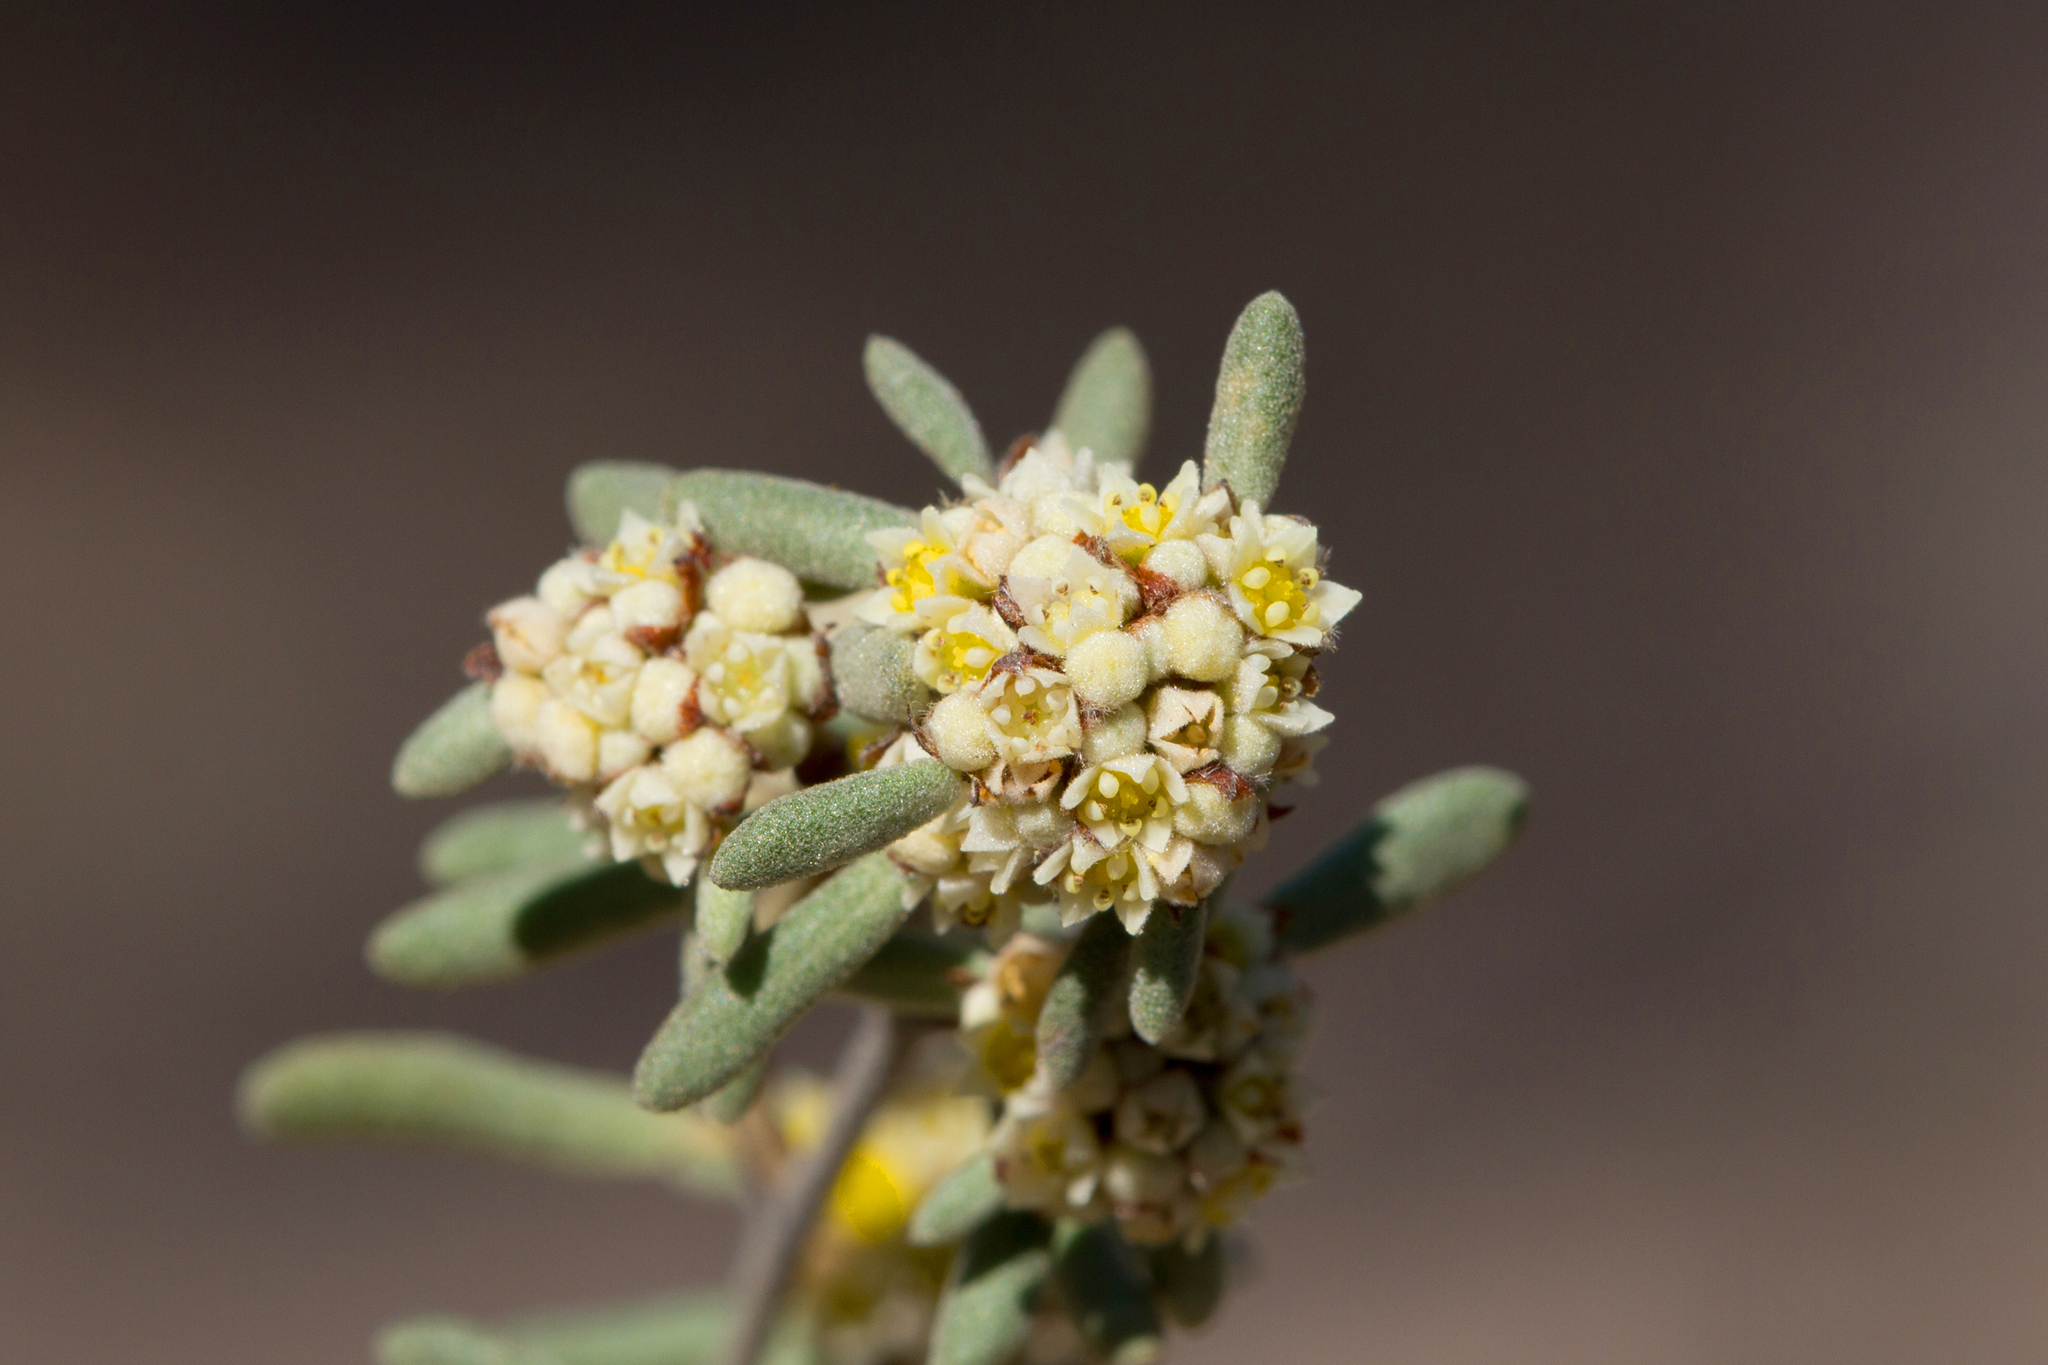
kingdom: Plantae
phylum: Tracheophyta
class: Magnoliopsida
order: Rosales
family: Rhamnaceae
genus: Spyridium
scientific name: Spyridium subochreatum
